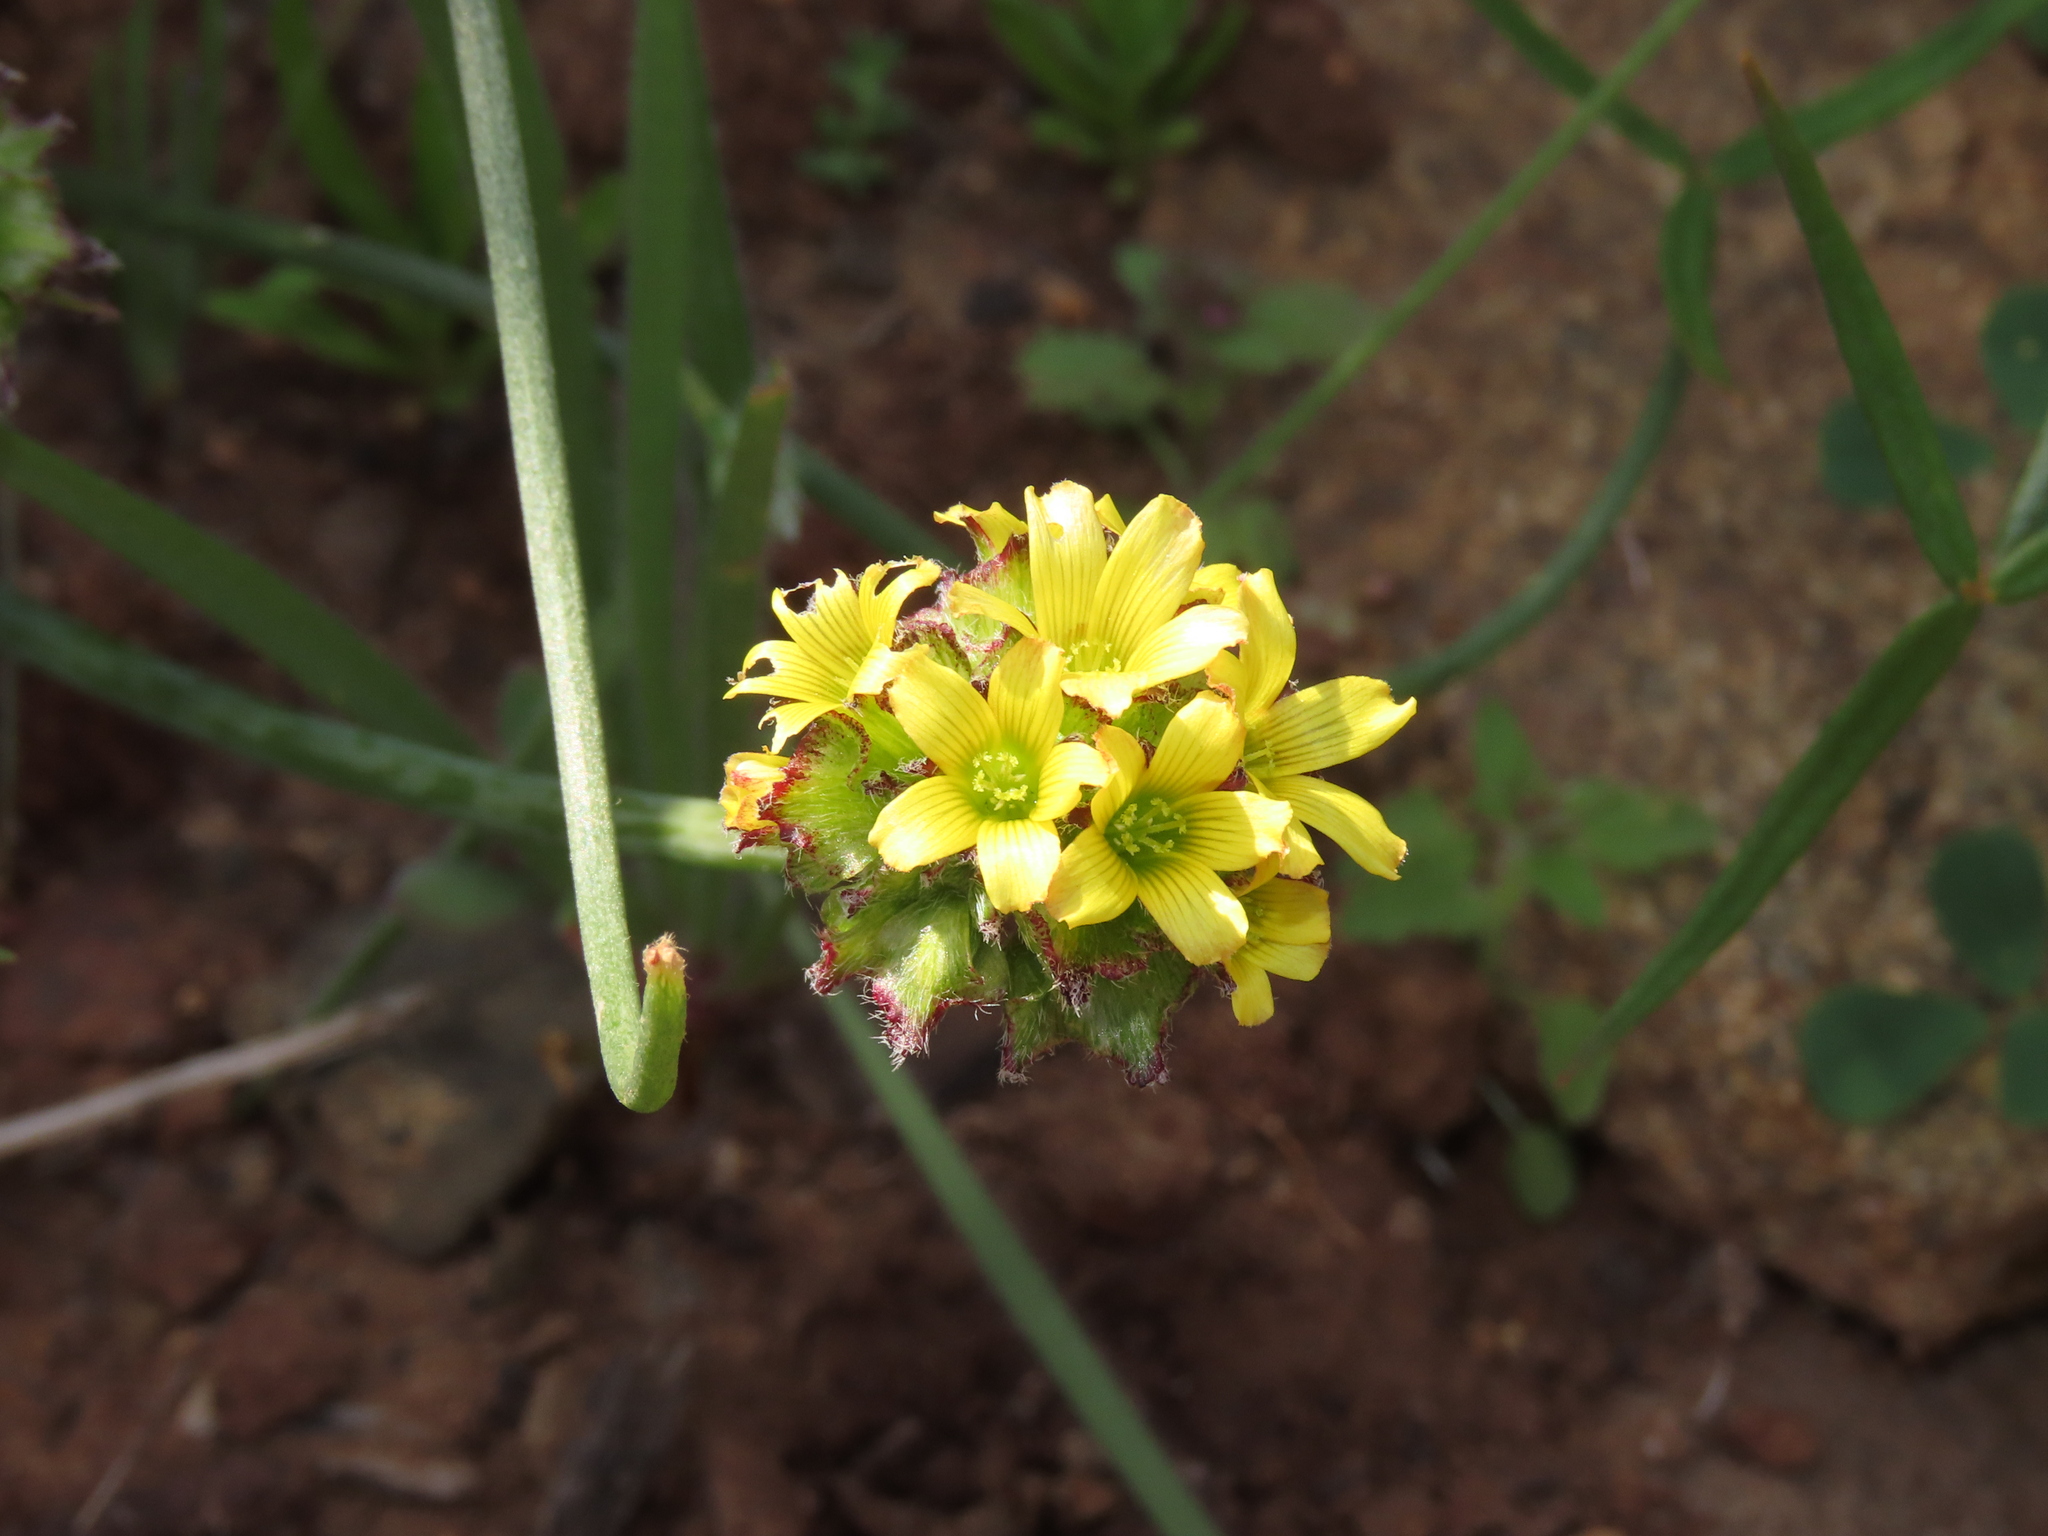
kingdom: Plantae
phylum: Tracheophyta
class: Magnoliopsida
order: Oxalidales
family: Oxalidaceae
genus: Oxalis
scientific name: Oxalis tortuosa
